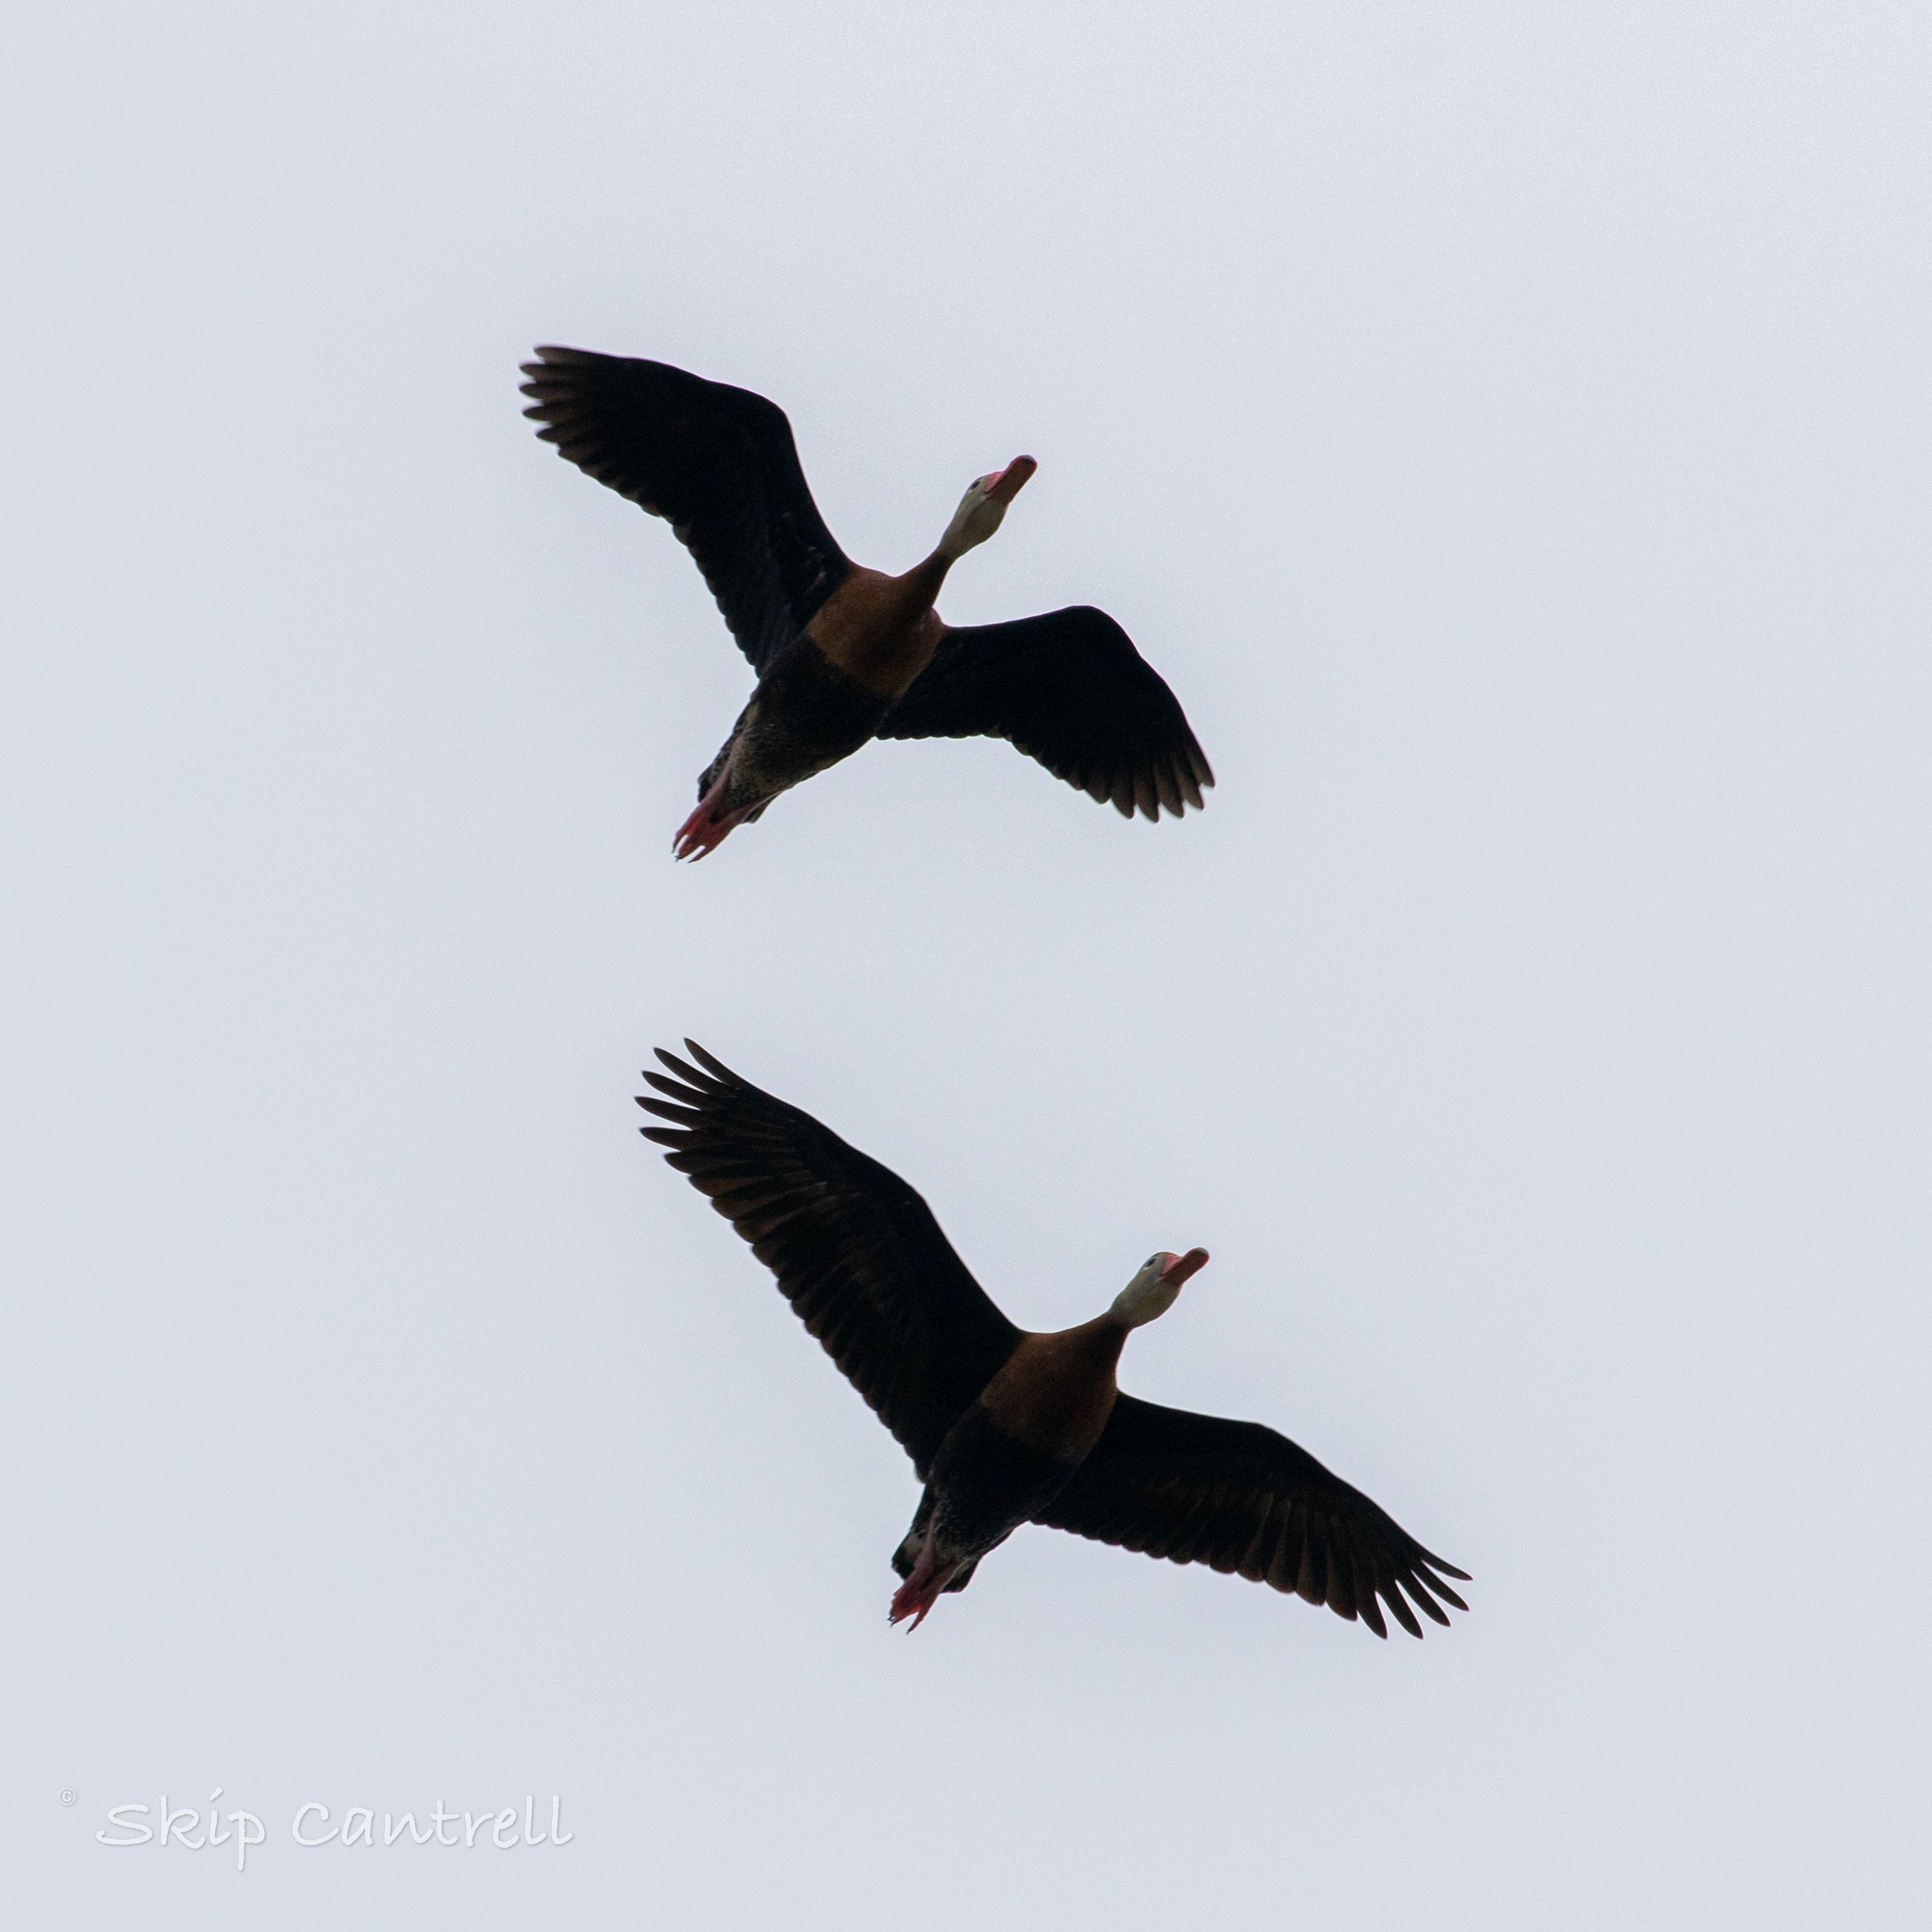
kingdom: Animalia
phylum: Chordata
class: Aves
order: Anseriformes
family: Anatidae
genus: Dendrocygna
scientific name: Dendrocygna autumnalis
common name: Black-bellied whistling duck
